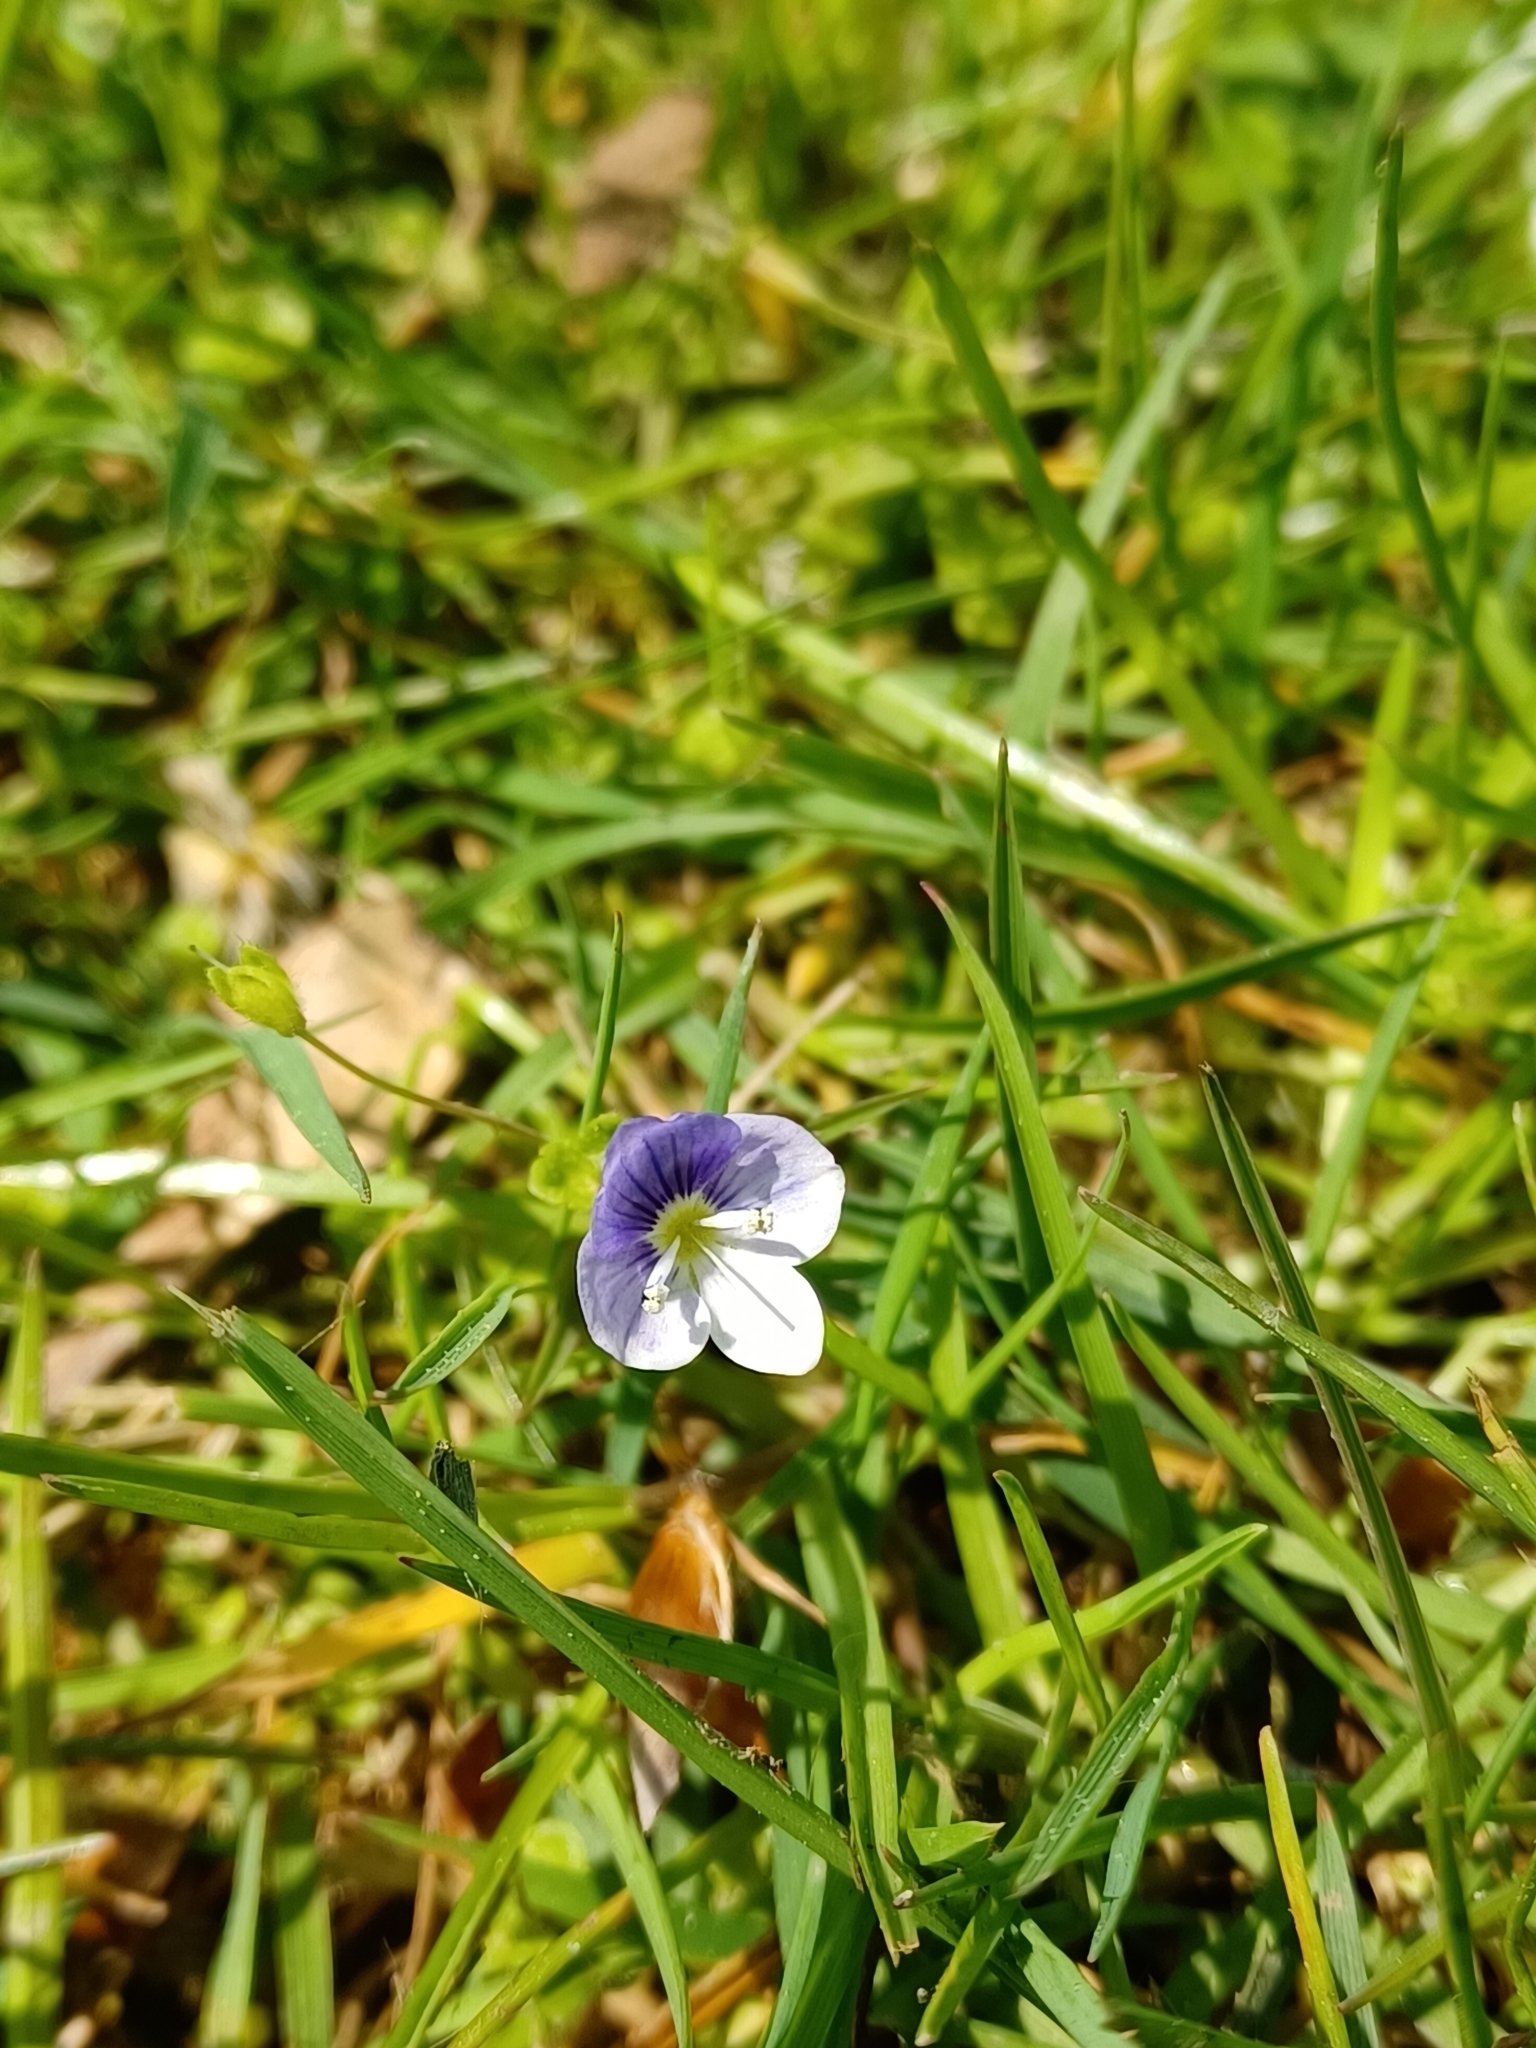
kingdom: Plantae
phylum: Tracheophyta
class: Magnoliopsida
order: Lamiales
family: Plantaginaceae
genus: Veronica
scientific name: Veronica filiformis
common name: Slender speedwell
